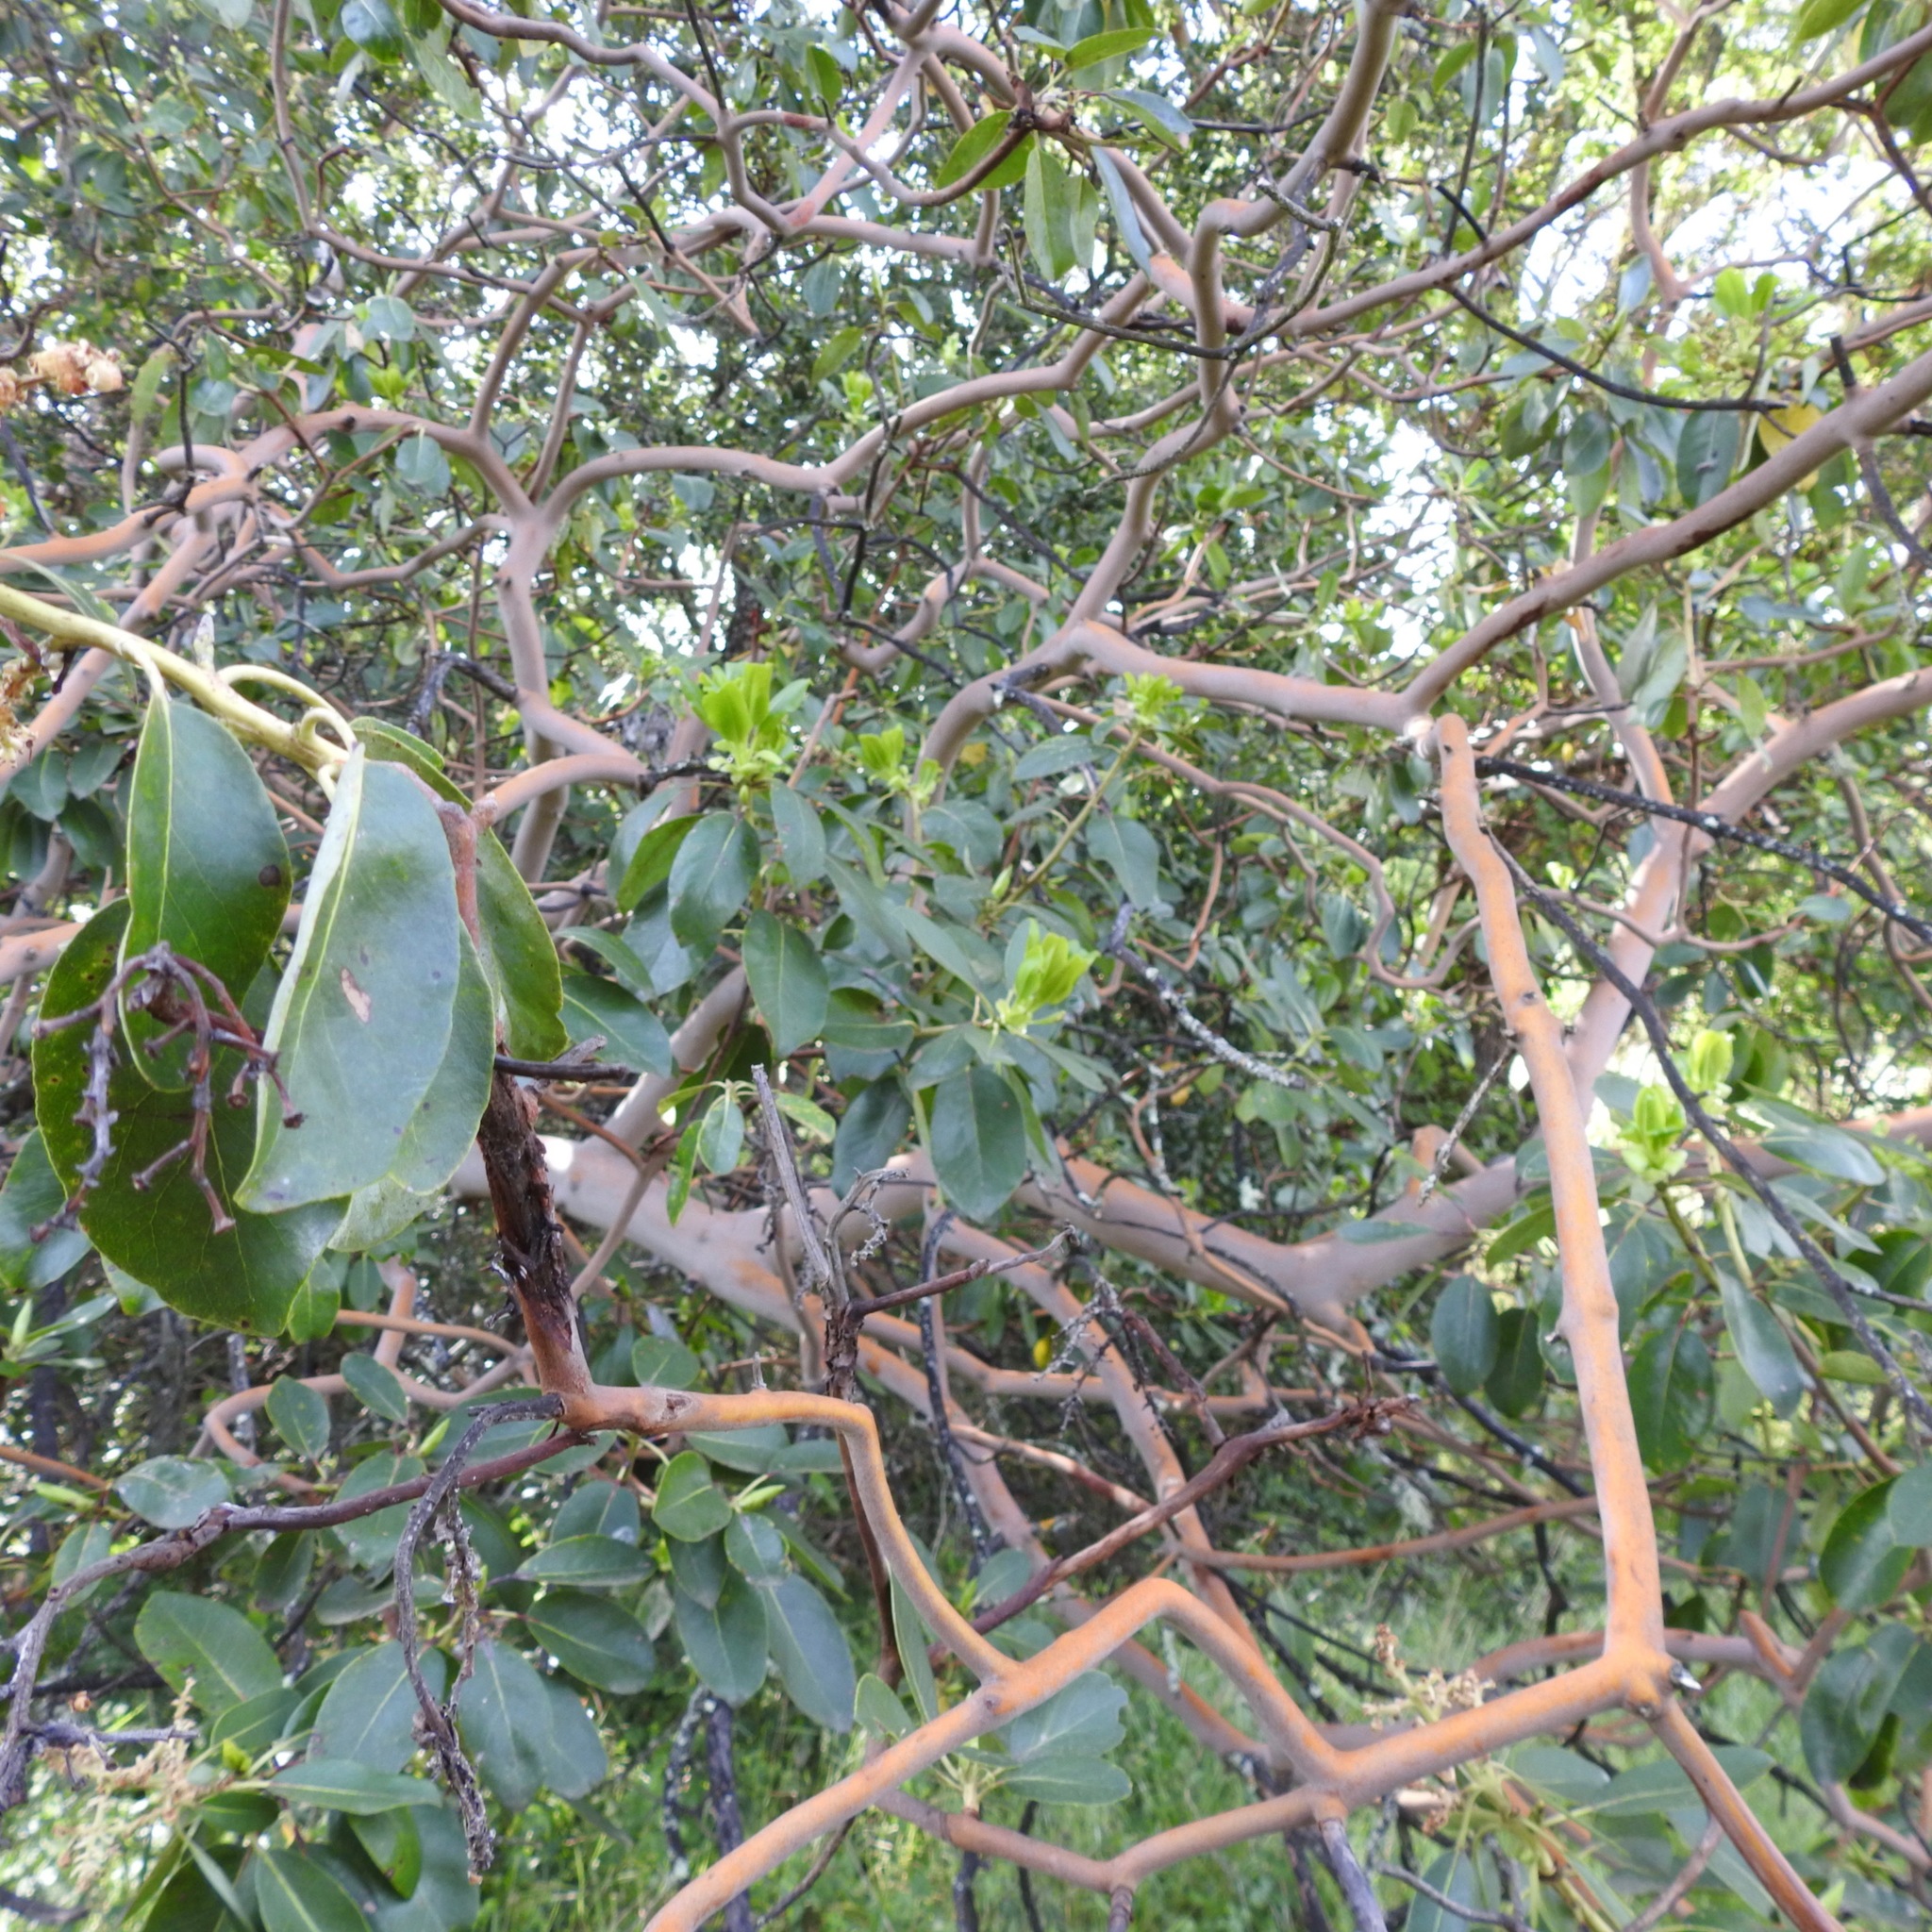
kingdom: Plantae
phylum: Tracheophyta
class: Magnoliopsida
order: Ericales
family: Ericaceae
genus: Arbutus
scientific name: Arbutus menziesii
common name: Pacific madrone
